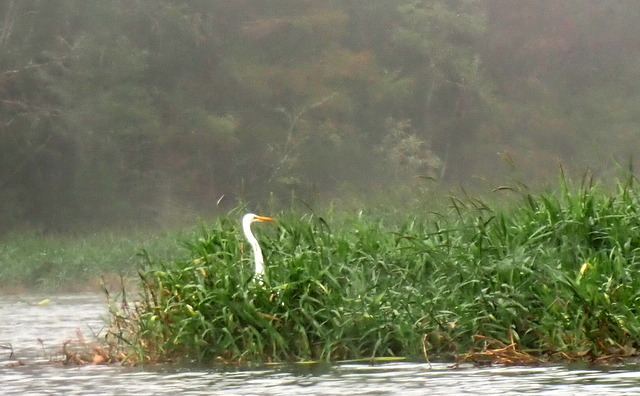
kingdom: Animalia
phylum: Chordata
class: Aves
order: Pelecaniformes
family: Ardeidae
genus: Ardea
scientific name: Ardea alba
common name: Great egret
